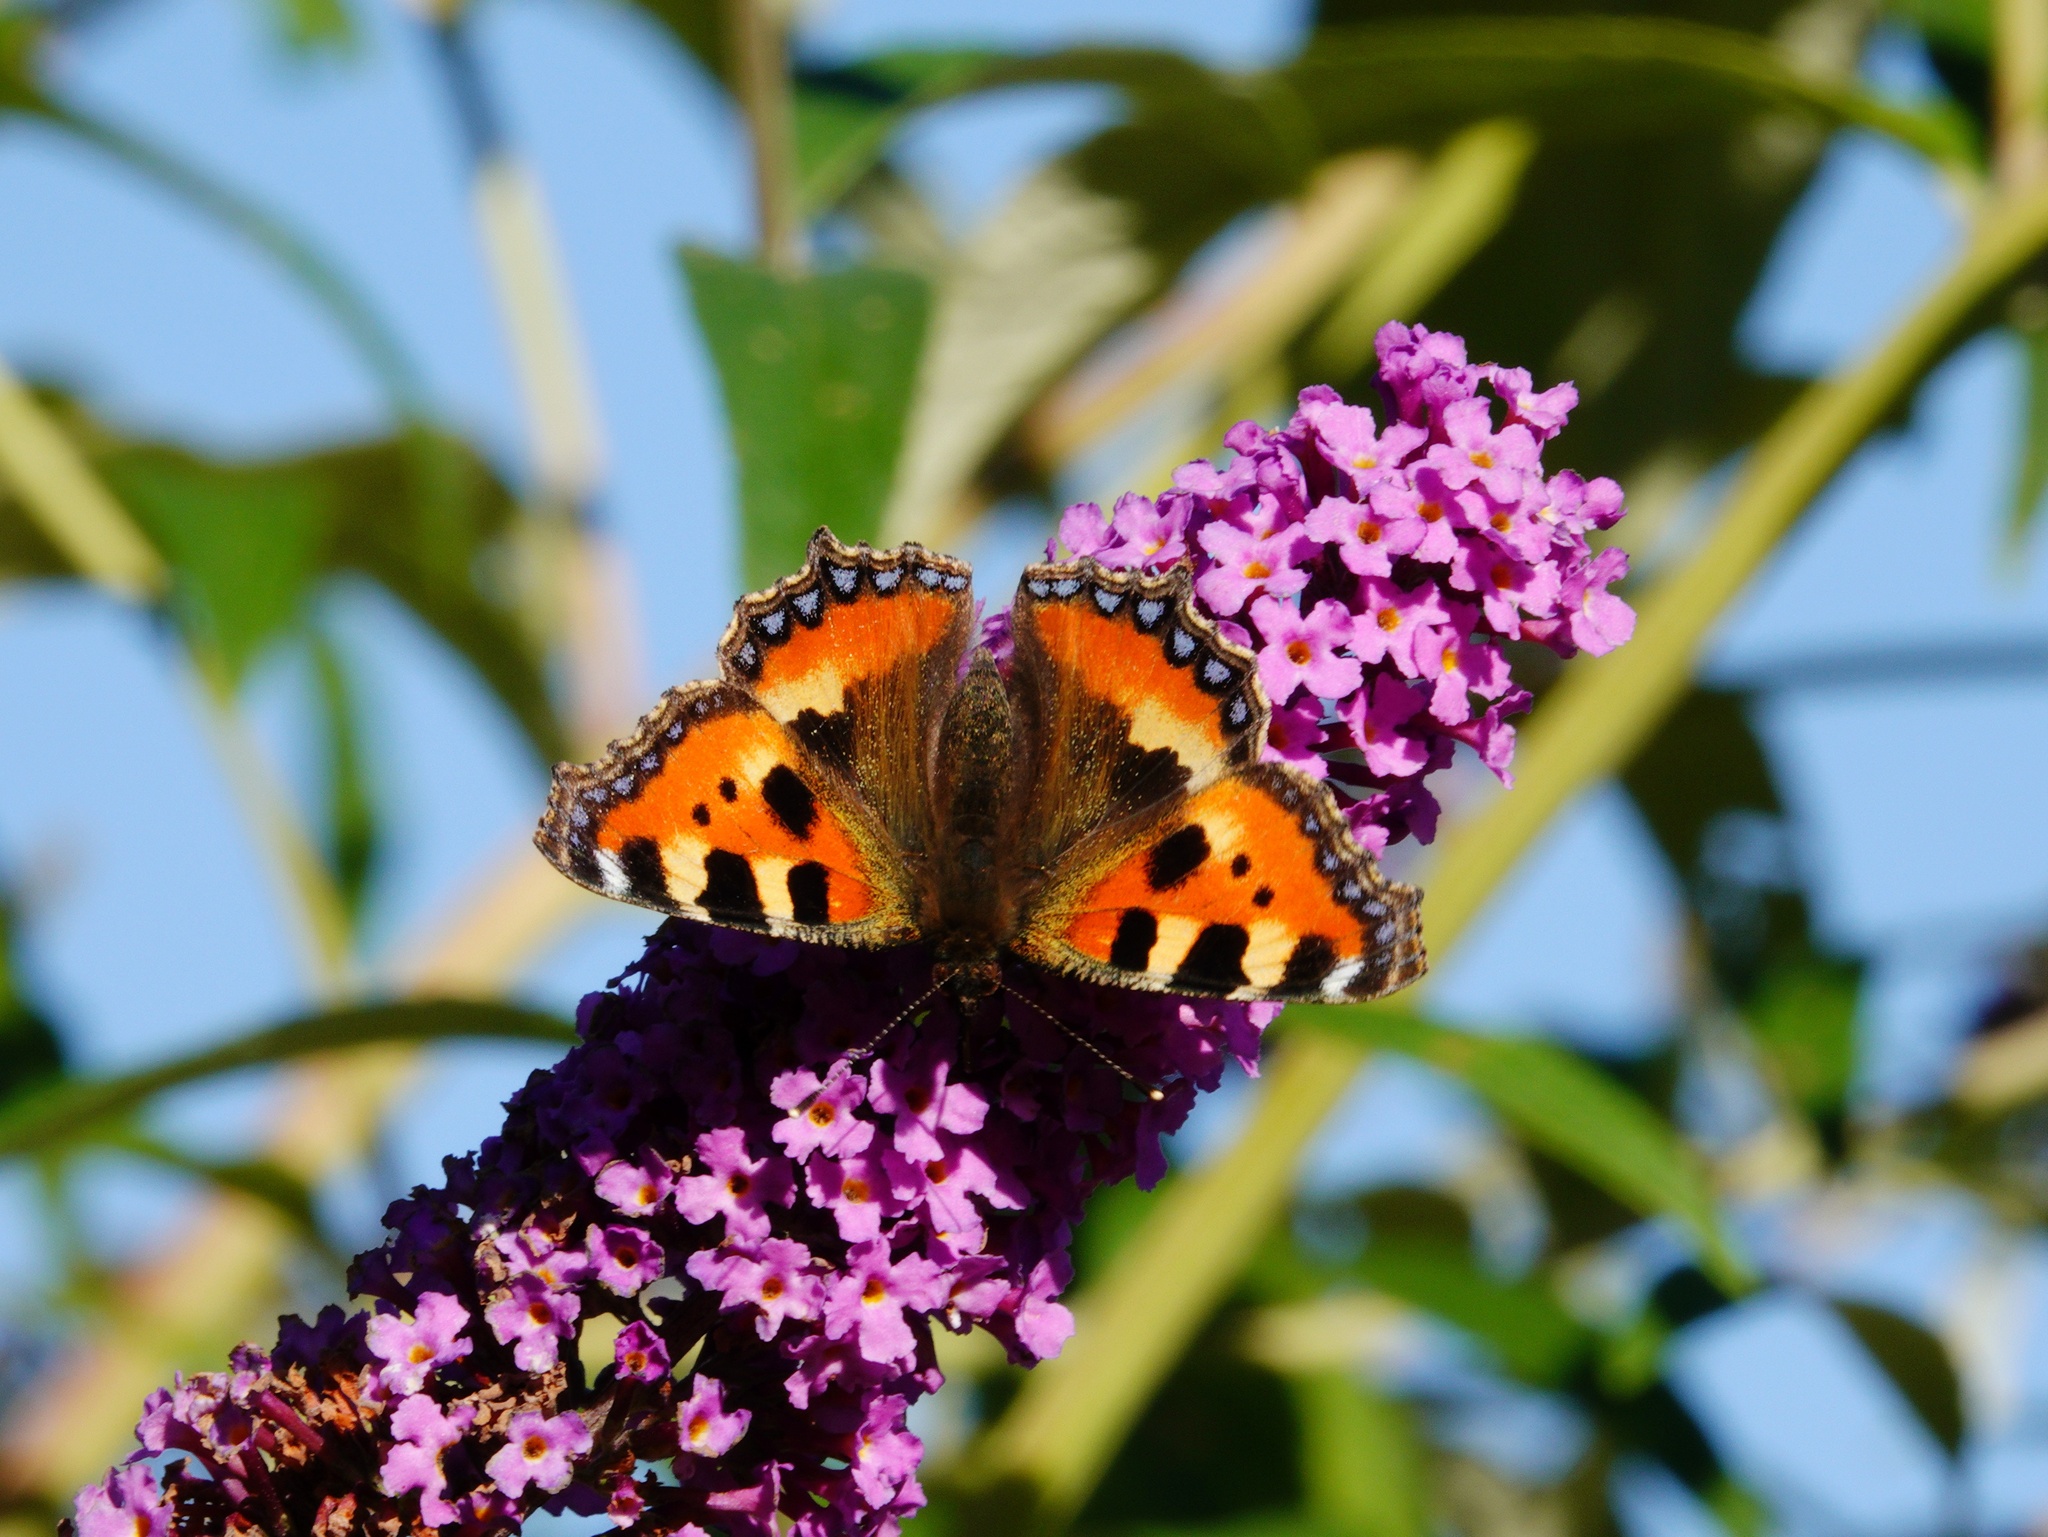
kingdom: Animalia
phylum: Arthropoda
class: Insecta
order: Lepidoptera
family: Nymphalidae
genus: Aglais
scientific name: Aglais urticae
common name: Small tortoiseshell
